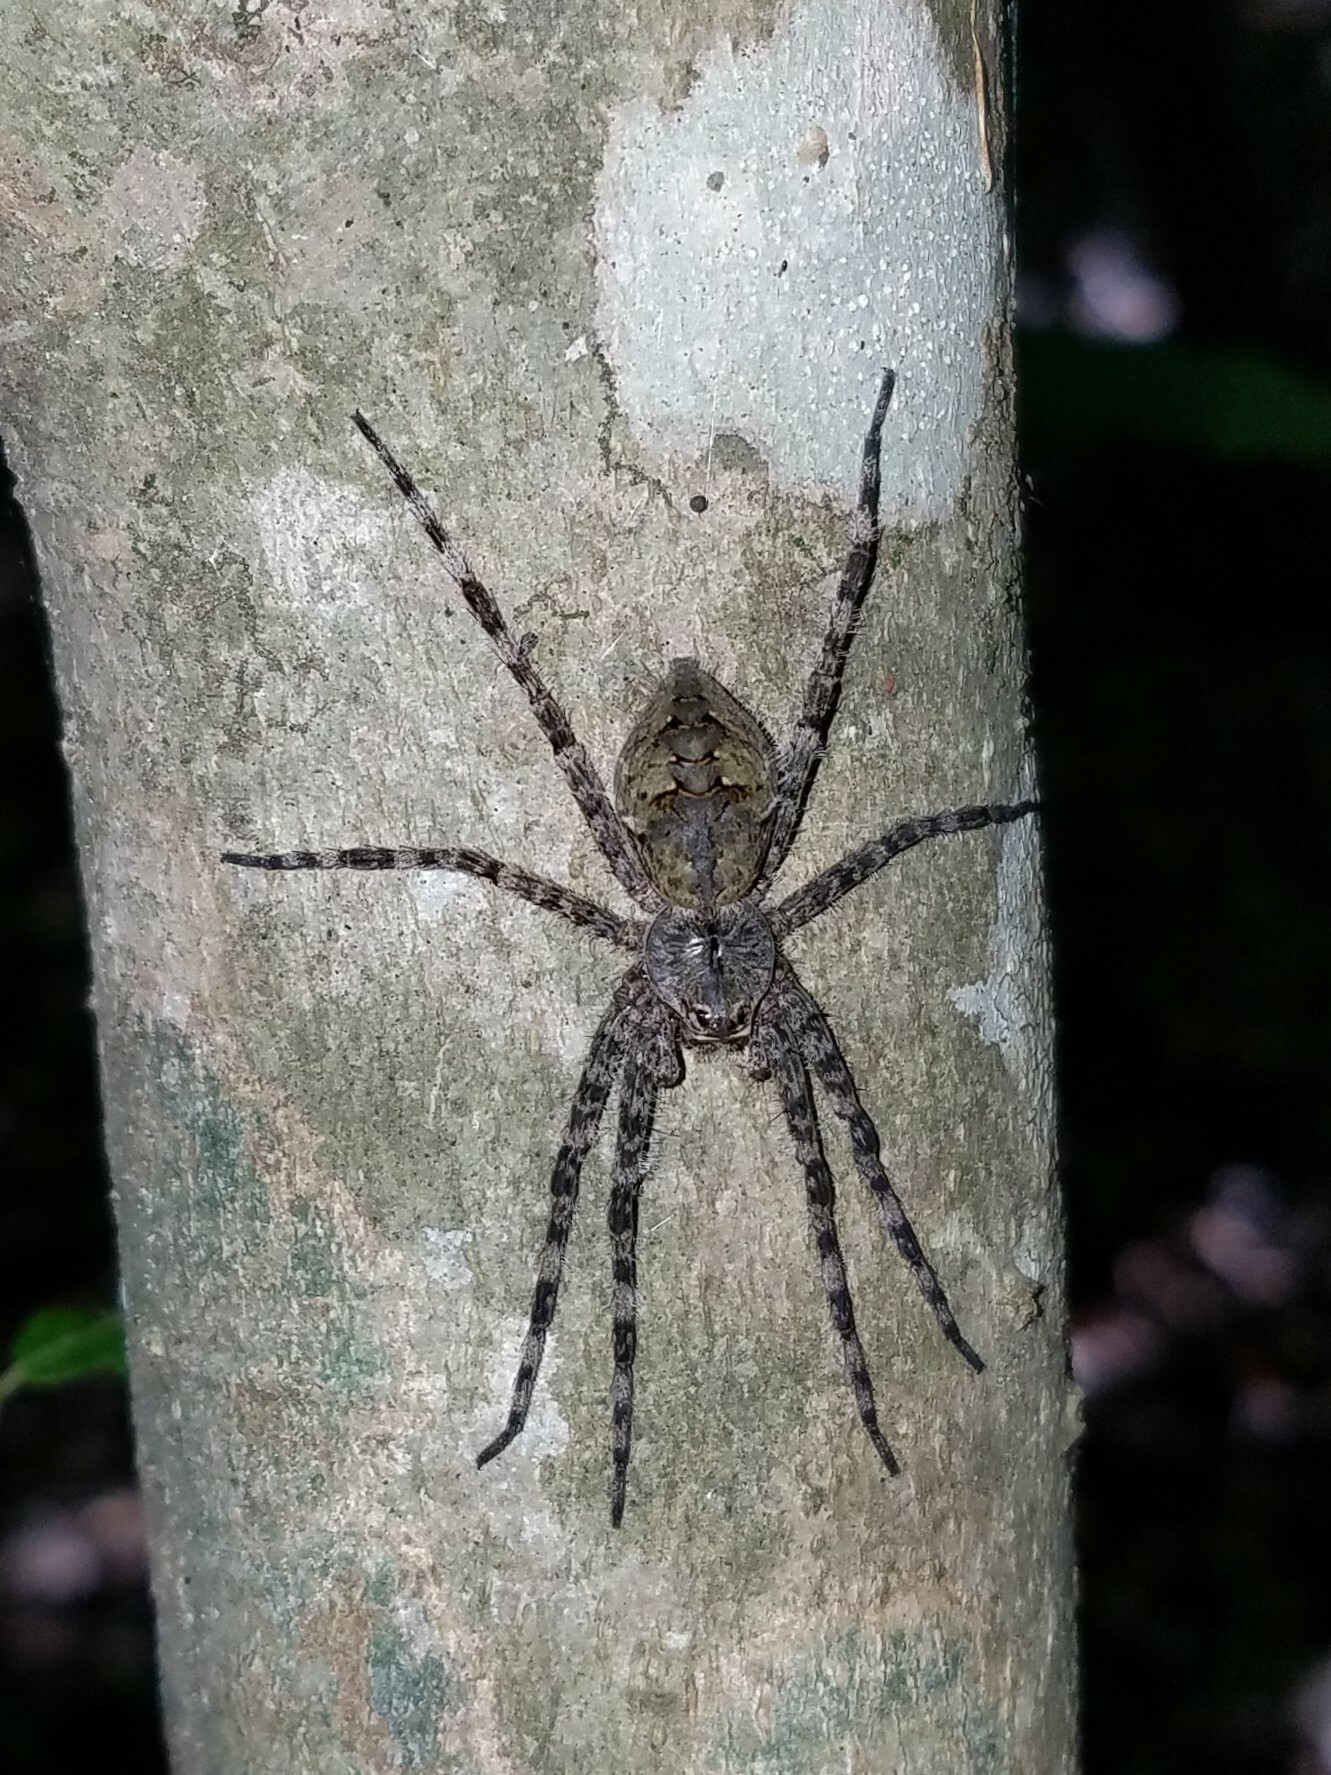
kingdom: Animalia
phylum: Arthropoda
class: Arachnida
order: Araneae
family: Pisauridae
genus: Dolomedes
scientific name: Dolomedes albineus
